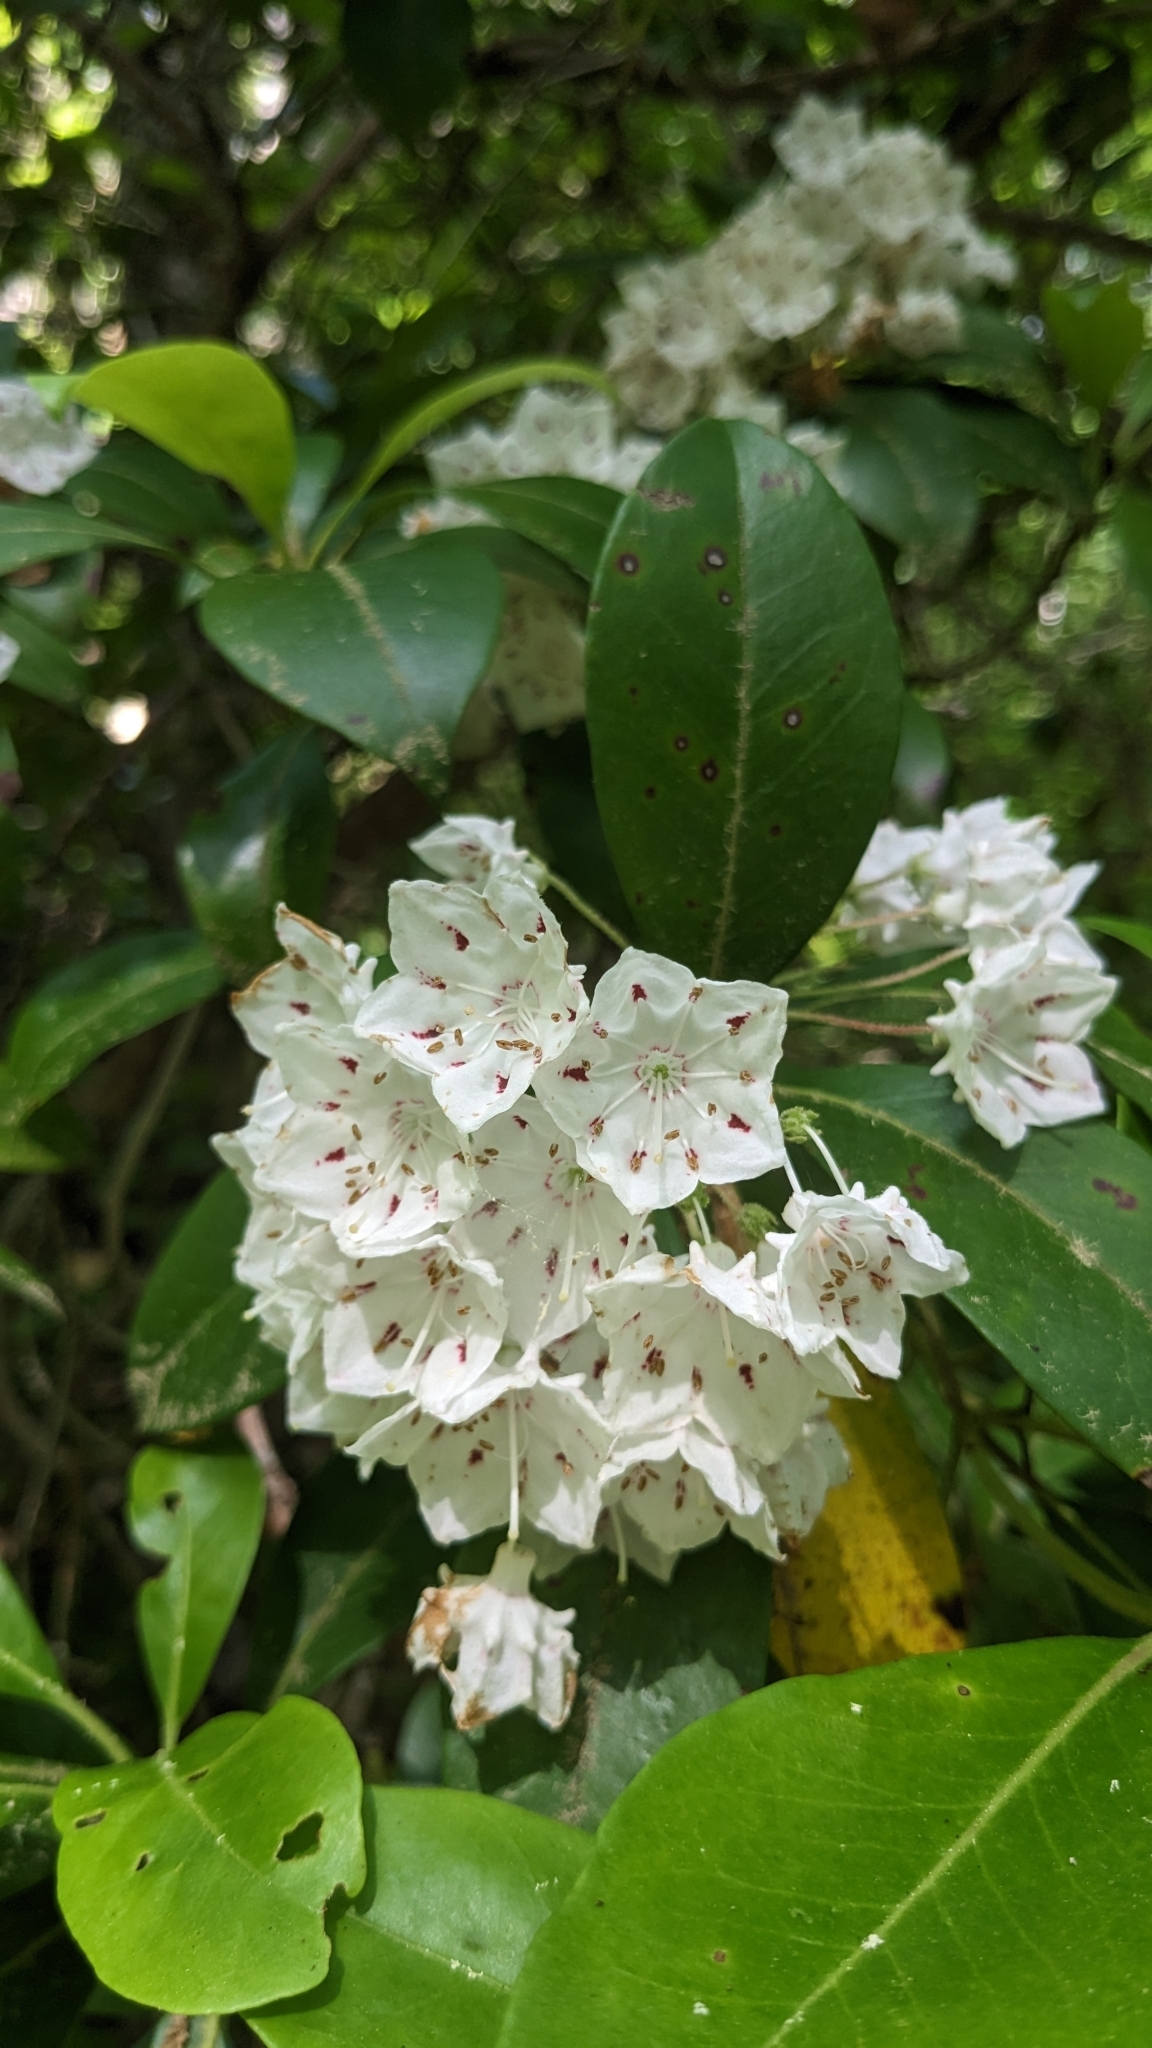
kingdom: Plantae
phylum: Tracheophyta
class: Magnoliopsida
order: Ericales
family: Ericaceae
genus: Kalmia
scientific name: Kalmia latifolia
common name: Mountain-laurel
